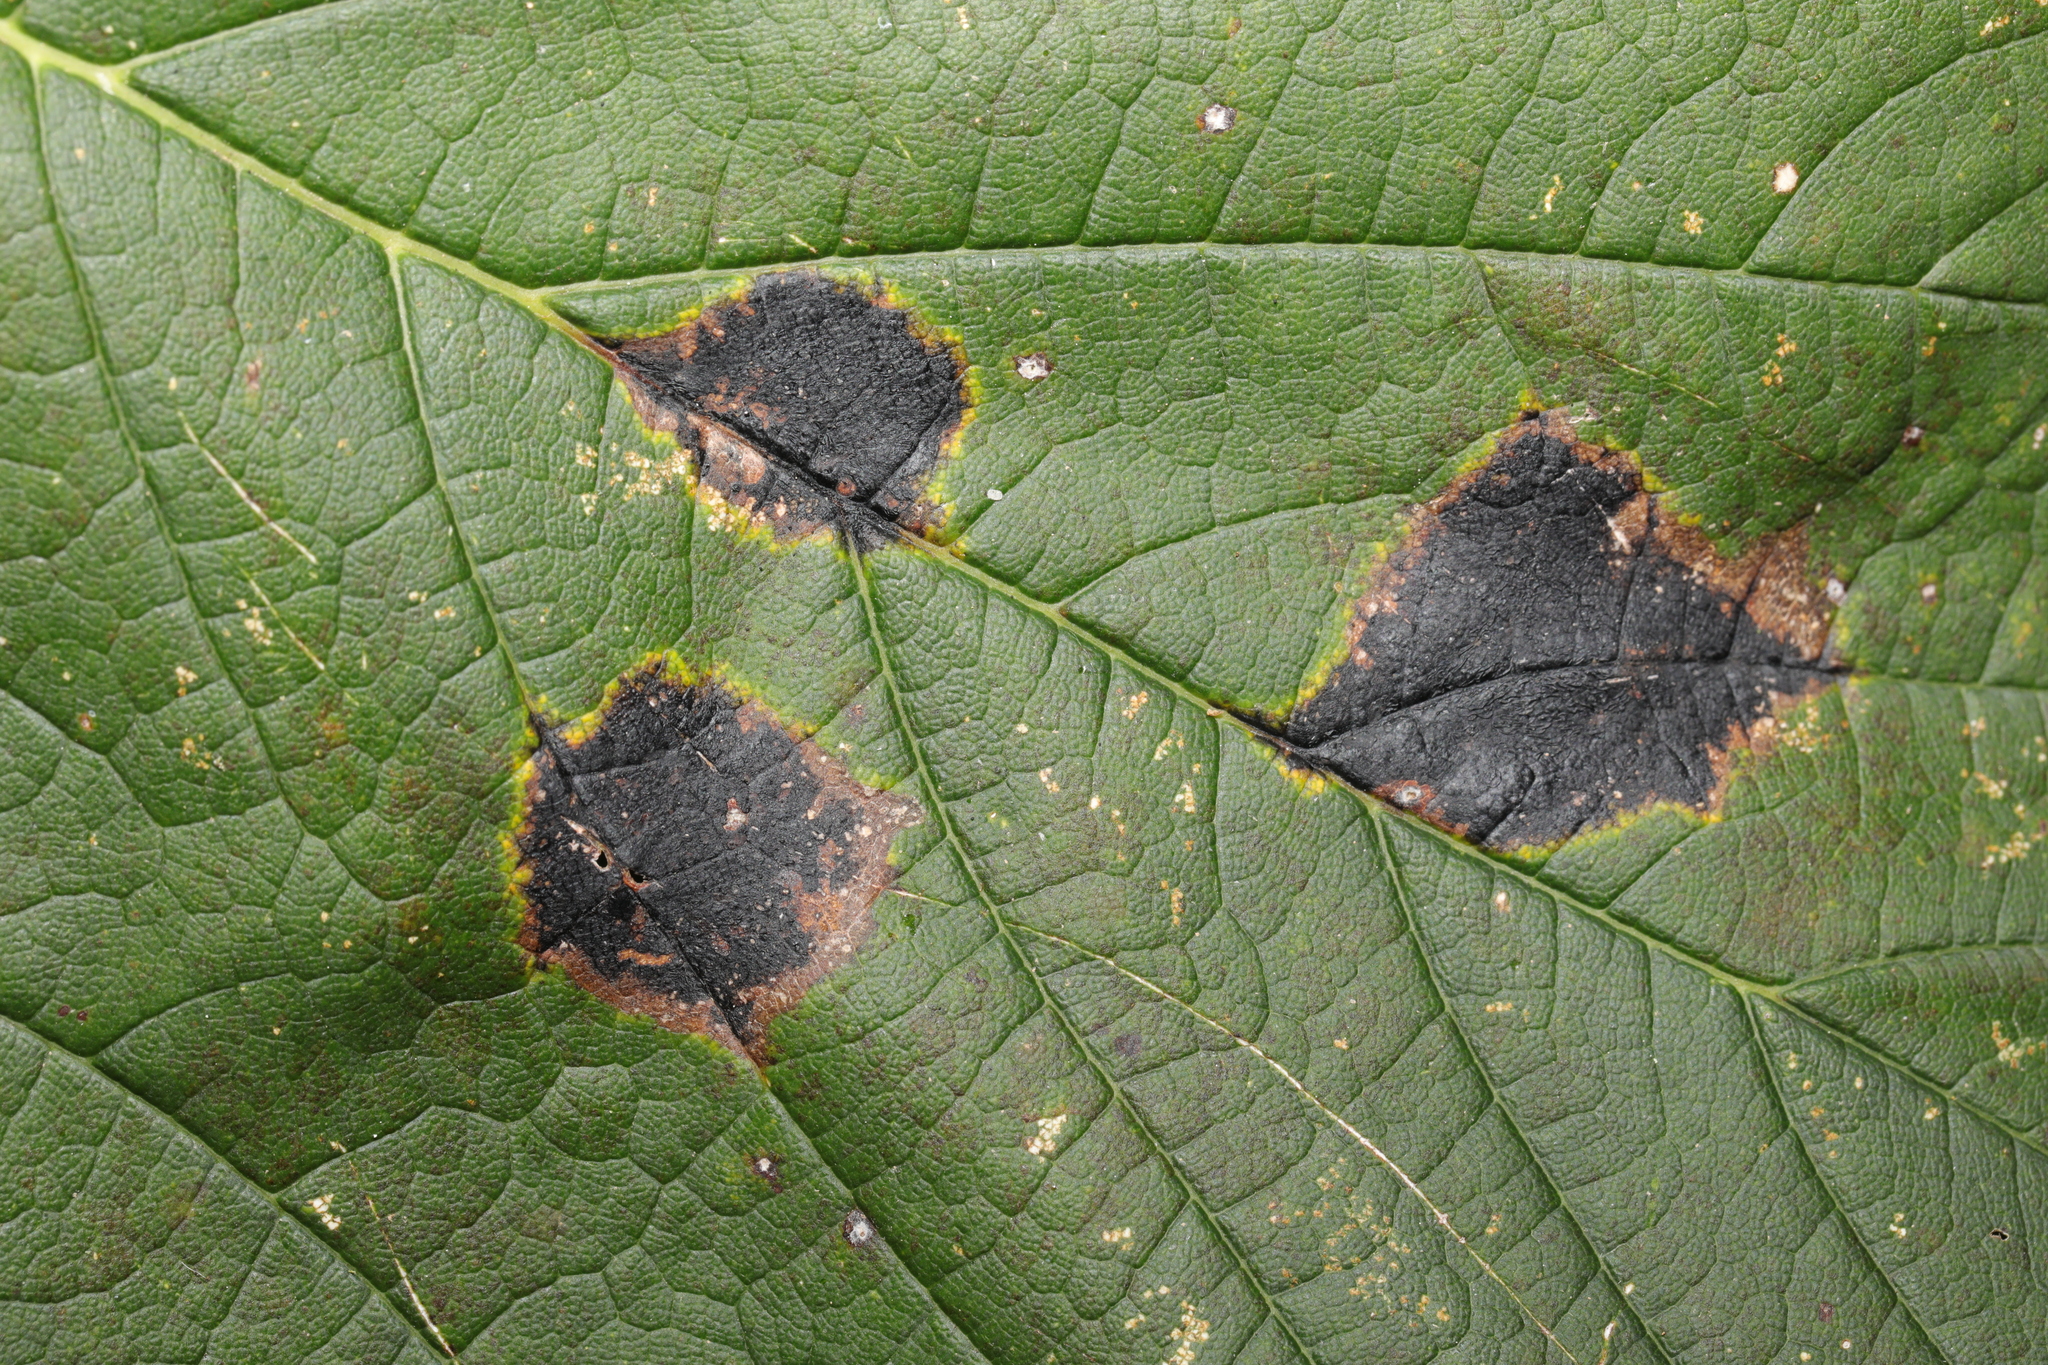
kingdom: Fungi
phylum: Ascomycota
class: Leotiomycetes
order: Rhytismatales
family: Rhytismataceae
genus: Rhytisma
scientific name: Rhytisma acerinum
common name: European tar spot
